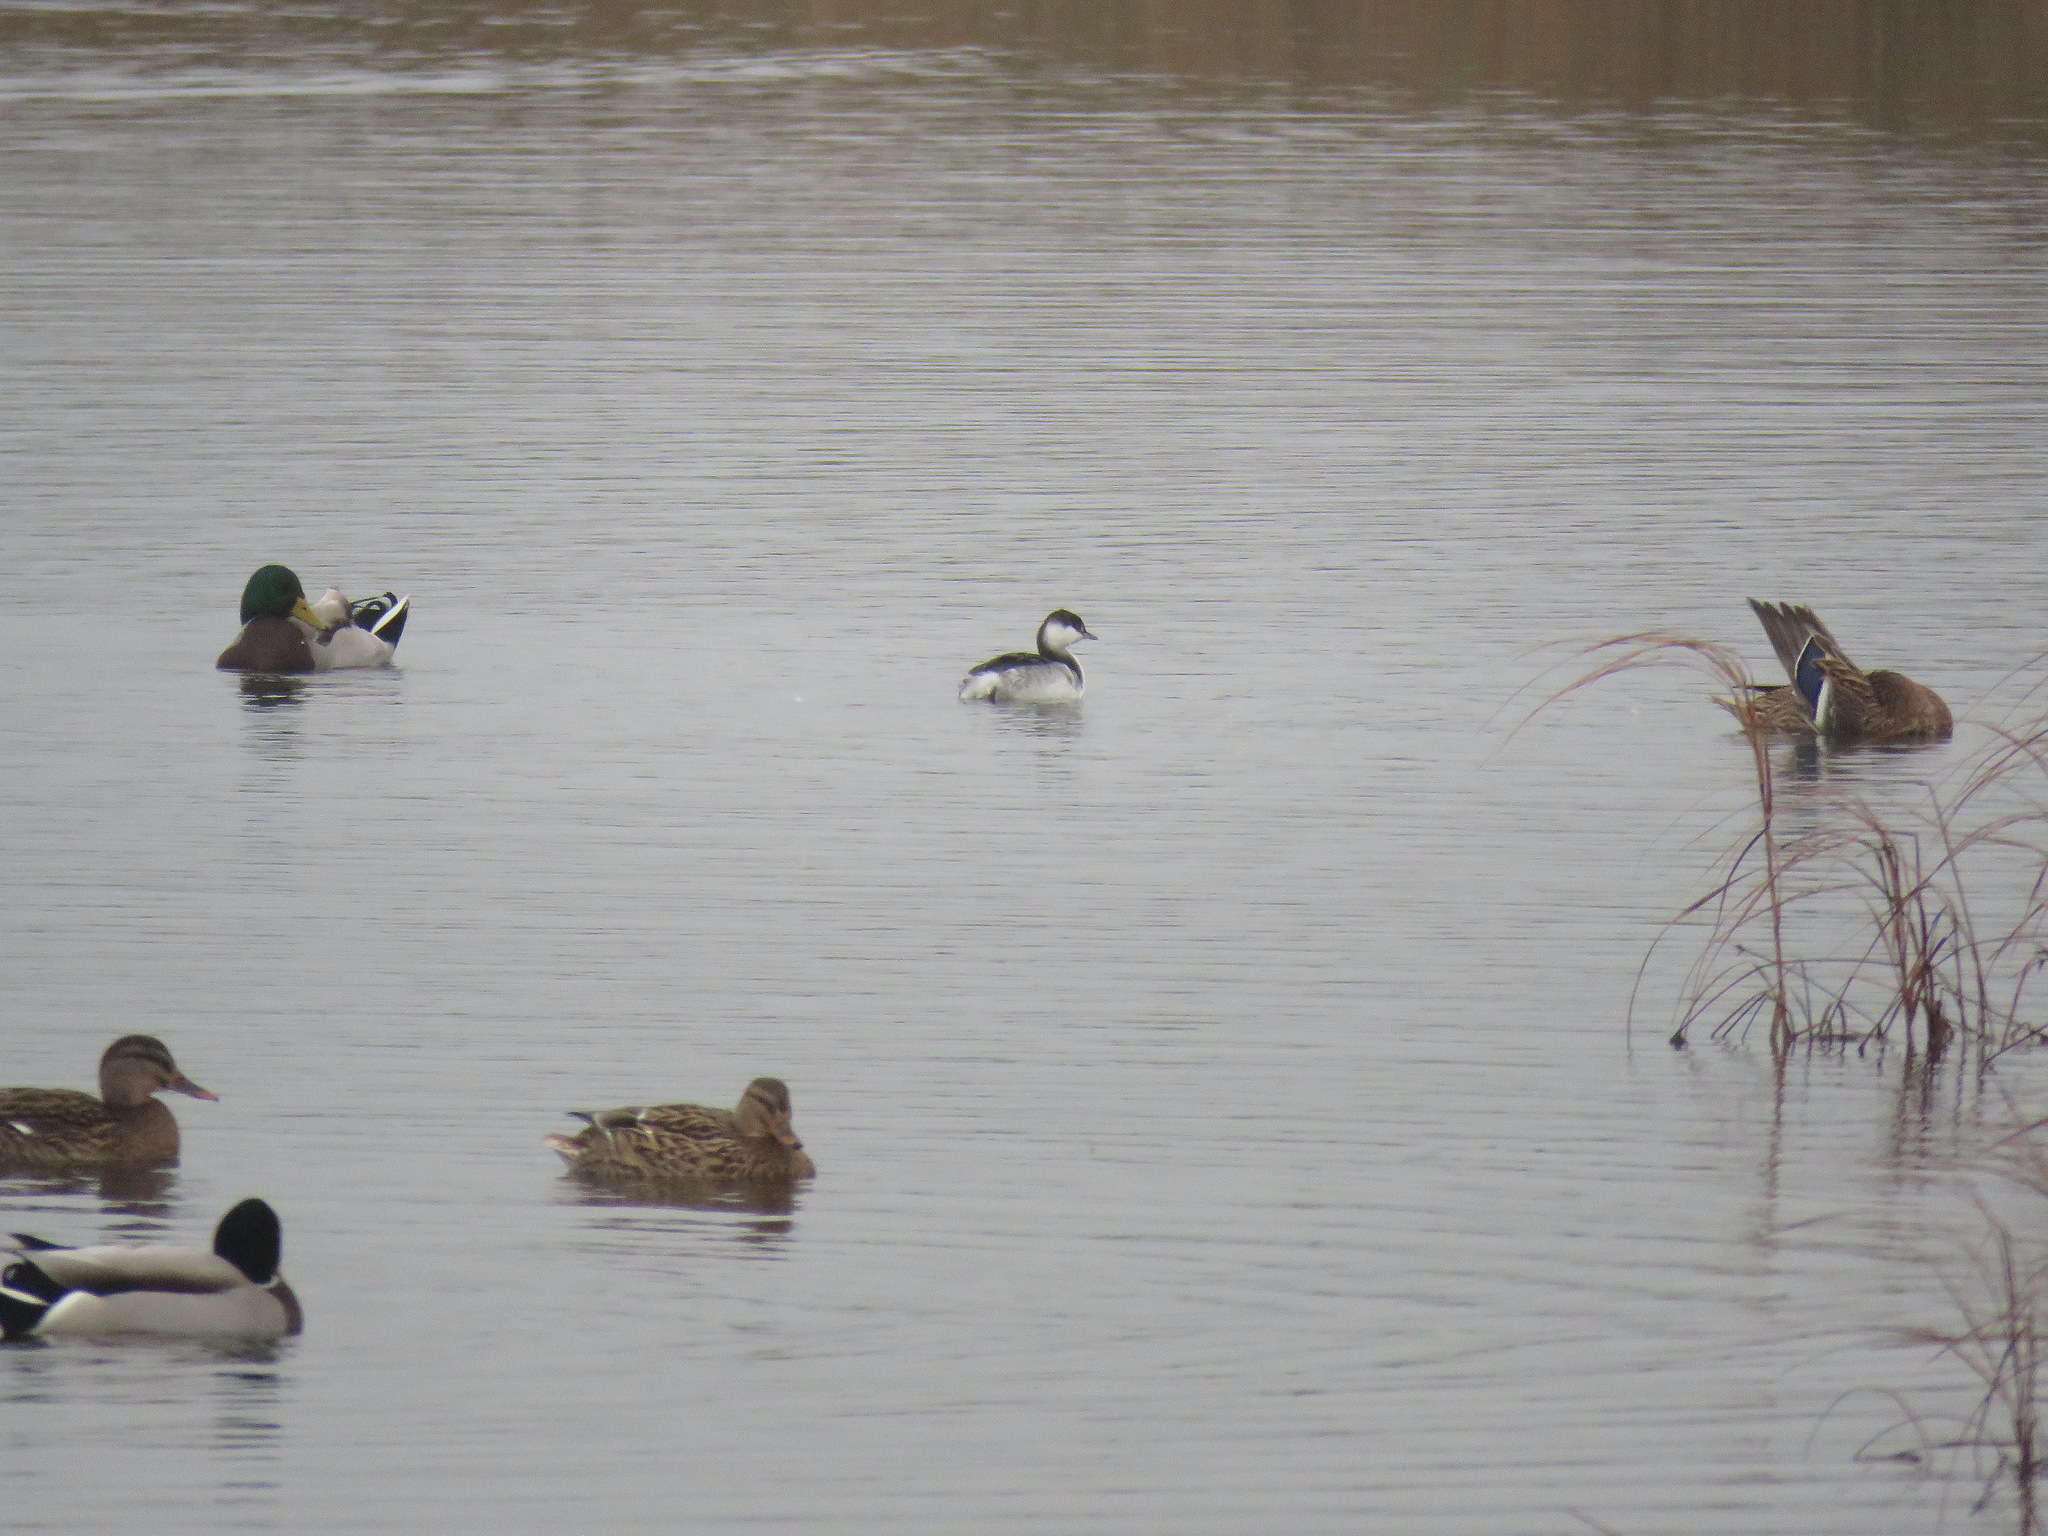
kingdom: Animalia
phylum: Chordata
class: Aves
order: Podicipediformes
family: Podicipedidae
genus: Podiceps
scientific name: Podiceps auritus
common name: Horned grebe
